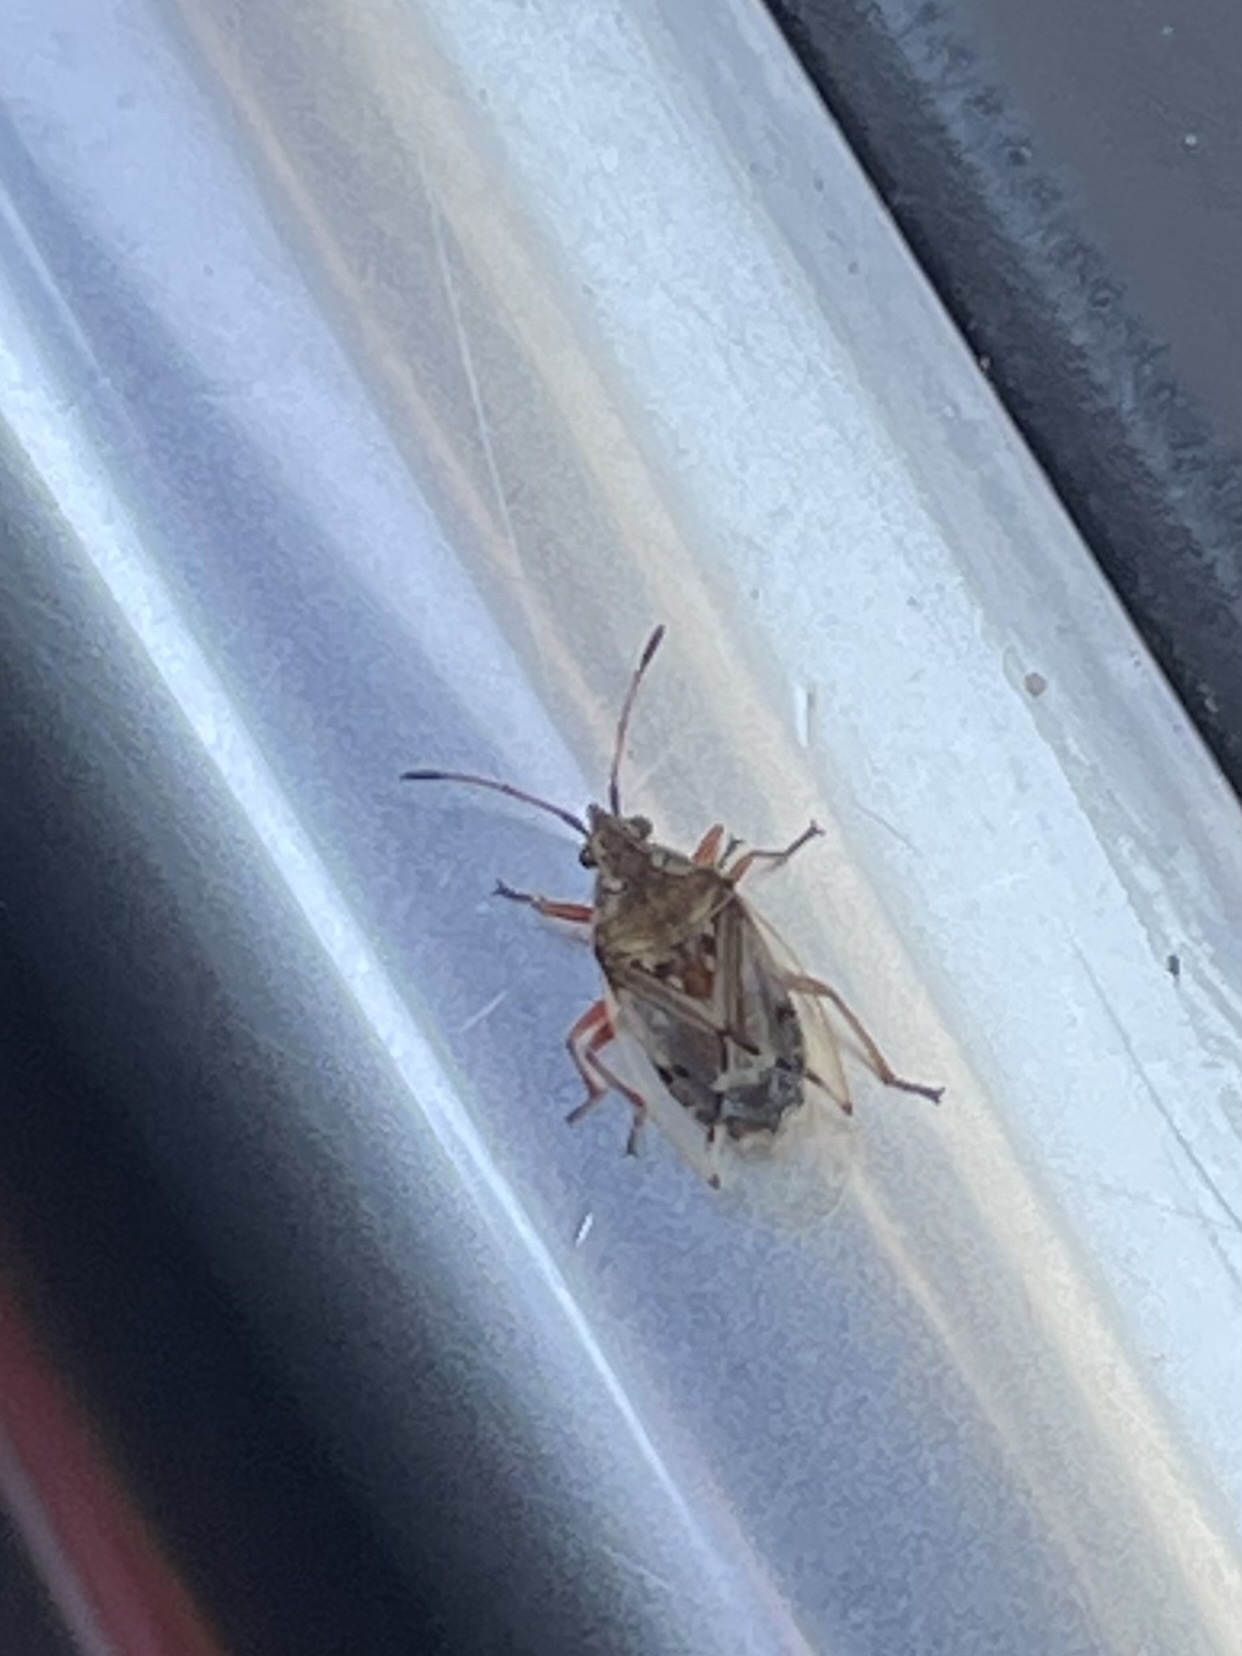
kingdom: Animalia
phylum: Arthropoda
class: Insecta
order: Hemiptera
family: Lygaeidae
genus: Kleidocerys
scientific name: Kleidocerys resedae
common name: Birch catkin bug
